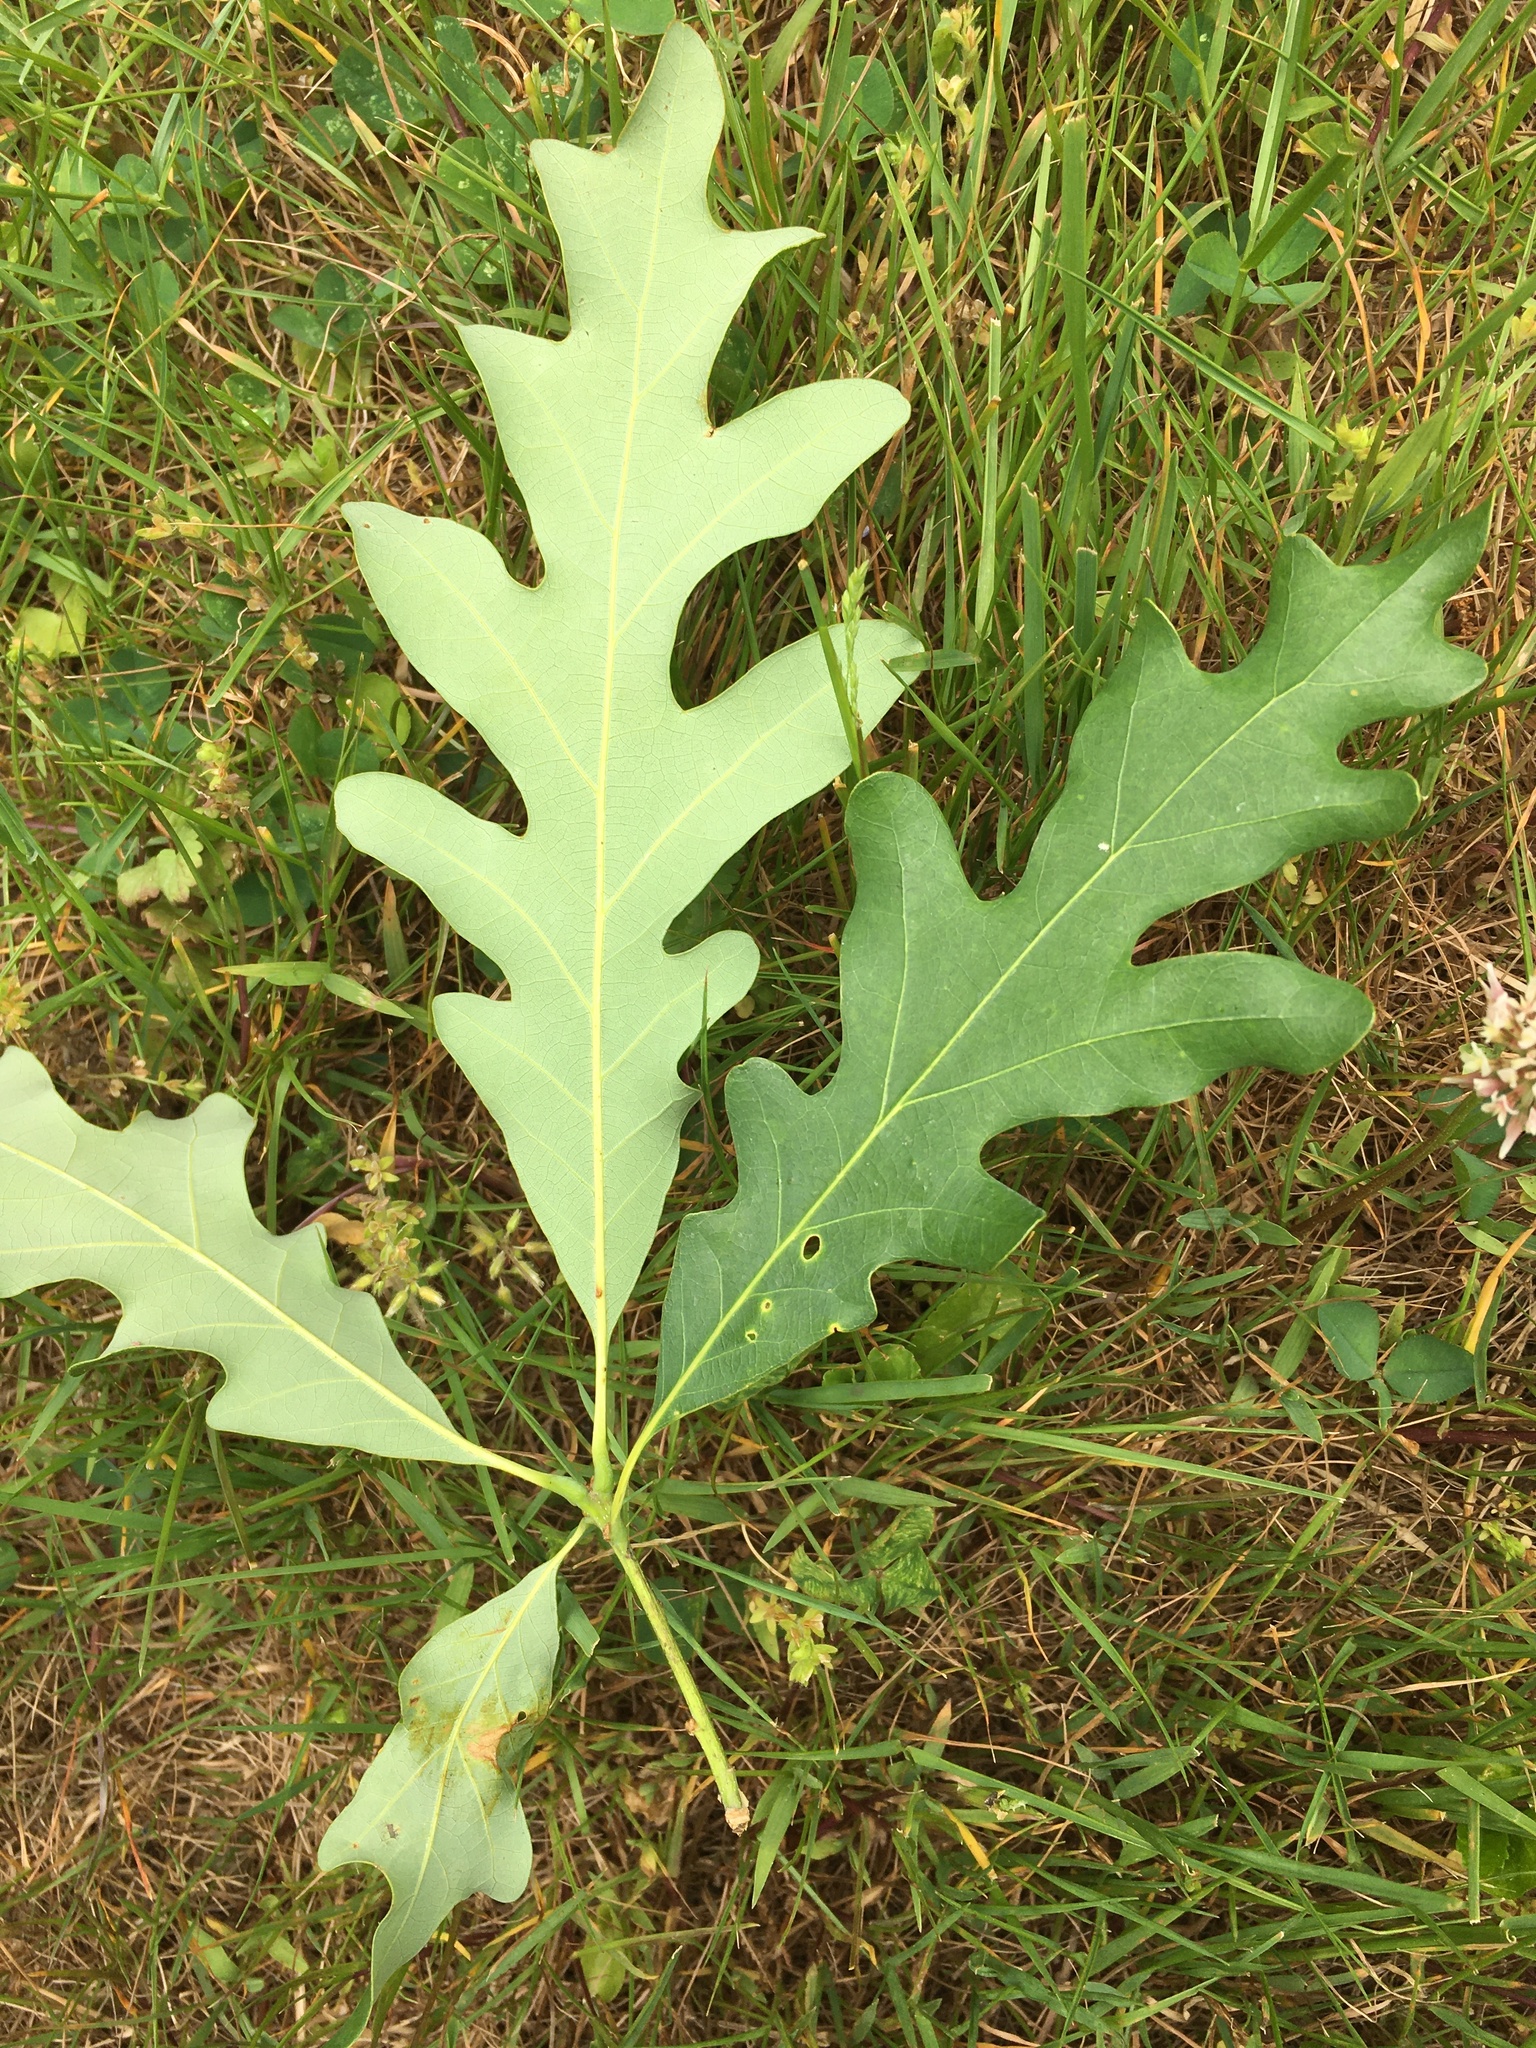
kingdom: Plantae
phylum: Tracheophyta
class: Magnoliopsida
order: Fagales
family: Fagaceae
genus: Quercus
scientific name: Quercus alba
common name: White oak
